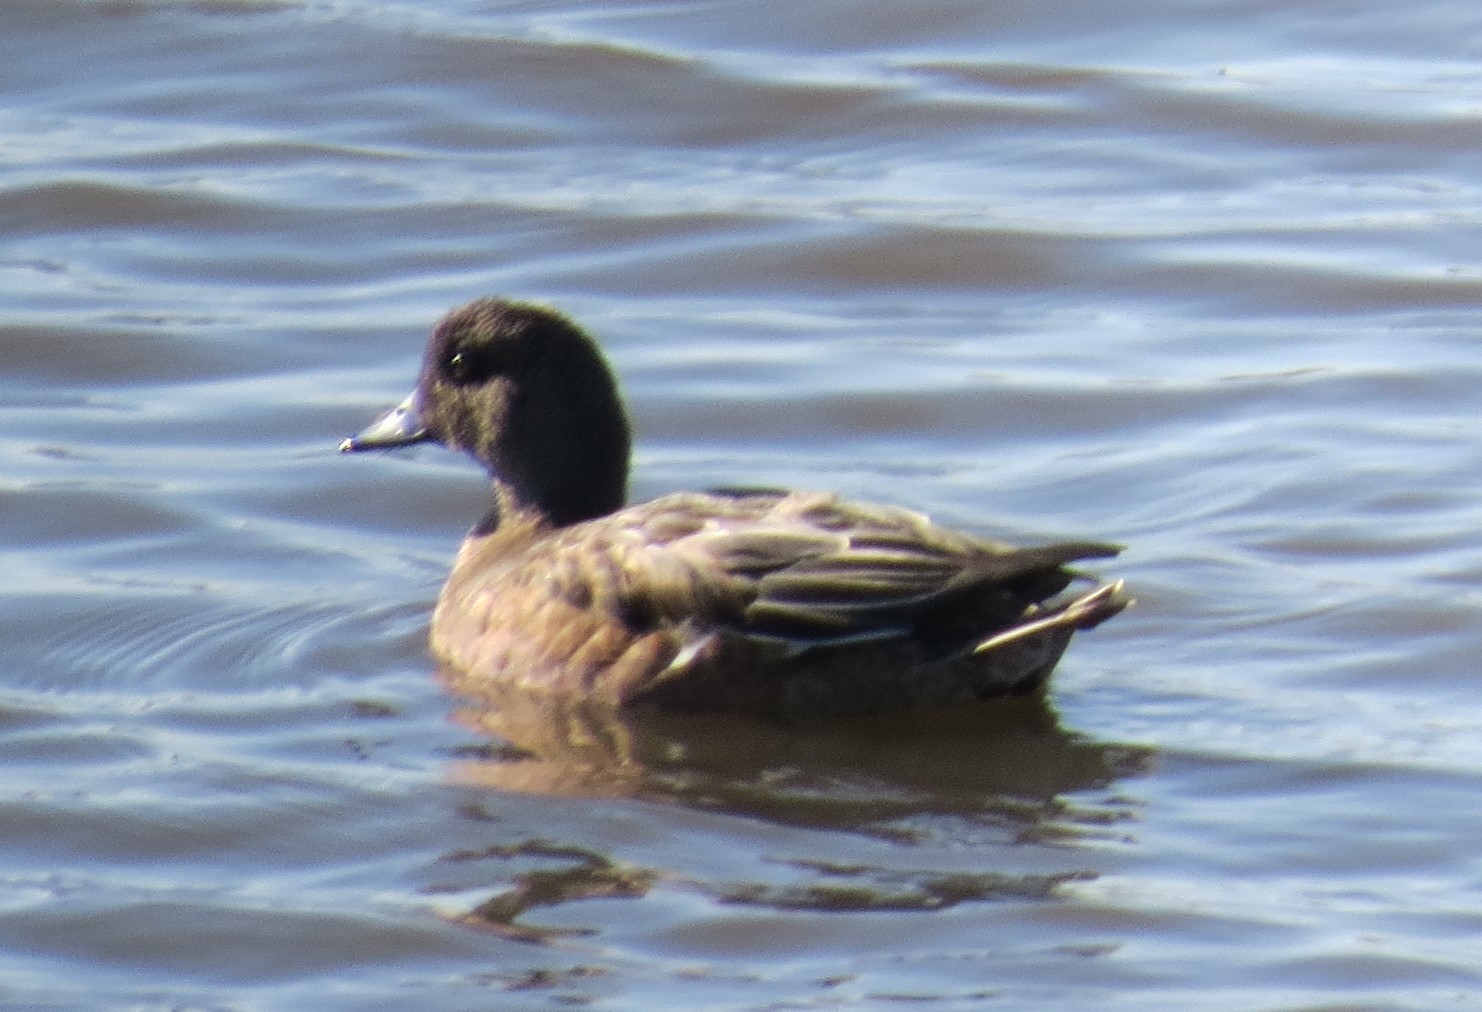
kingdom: Animalia
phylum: Chordata
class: Aves
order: Anseriformes
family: Anatidae
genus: Mareca
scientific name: Mareca americana
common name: American wigeon
